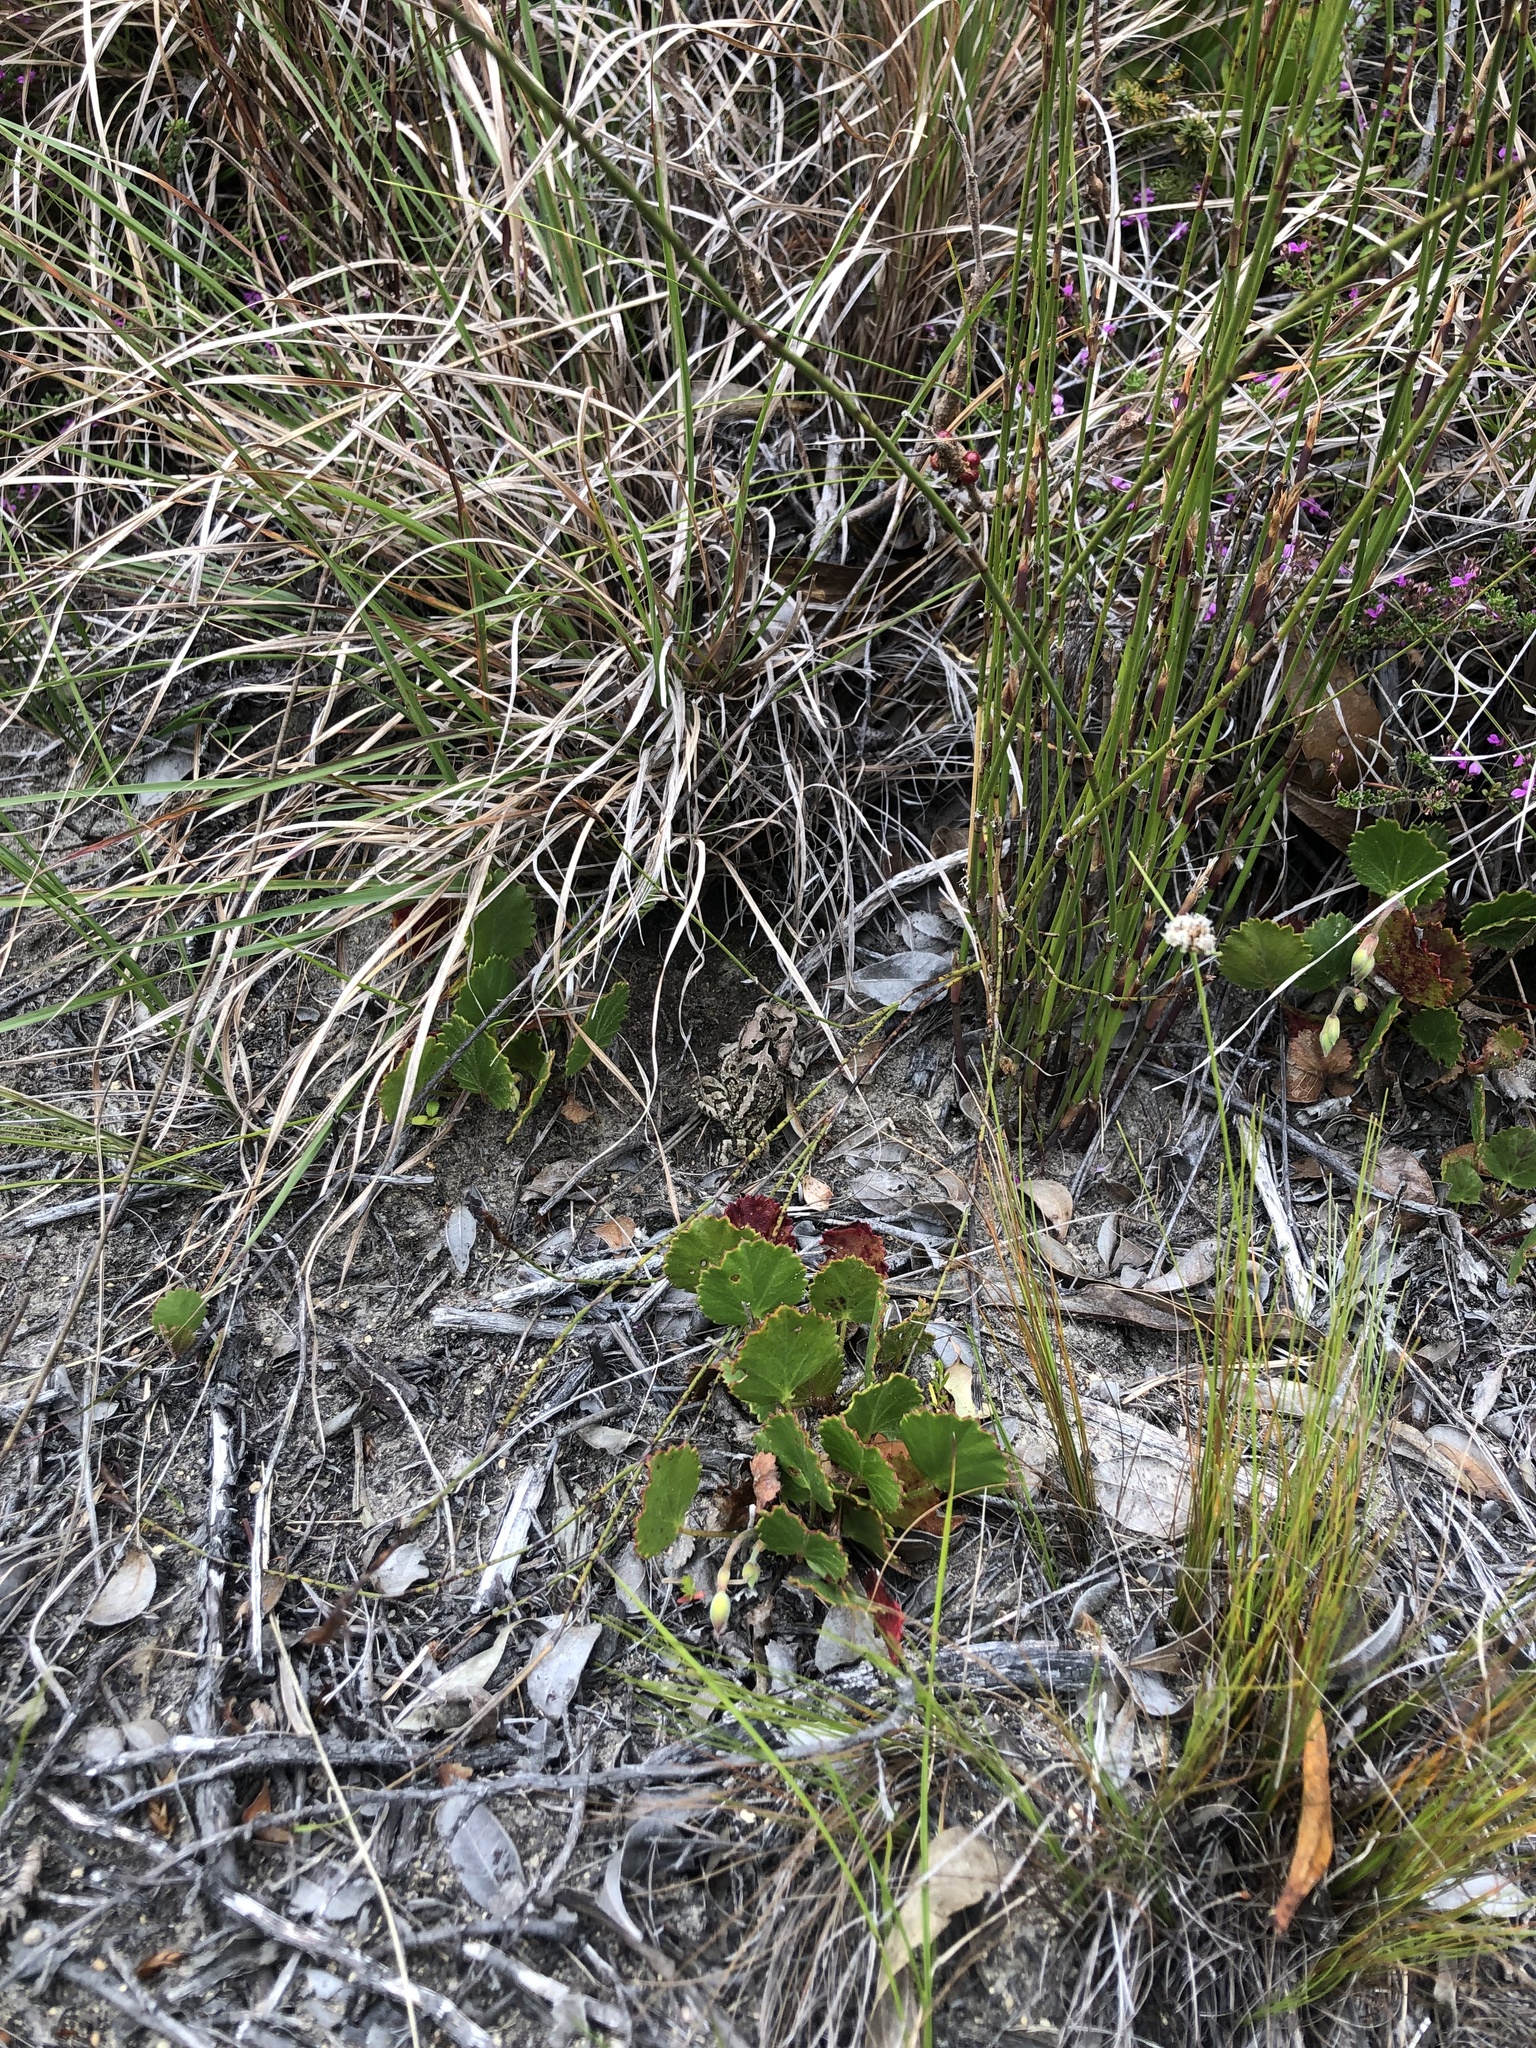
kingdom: Animalia
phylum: Chordata
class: Amphibia
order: Anura
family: Bufonidae
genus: Sclerophrys
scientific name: Sclerophrys capensis
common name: Ranger’s toad
